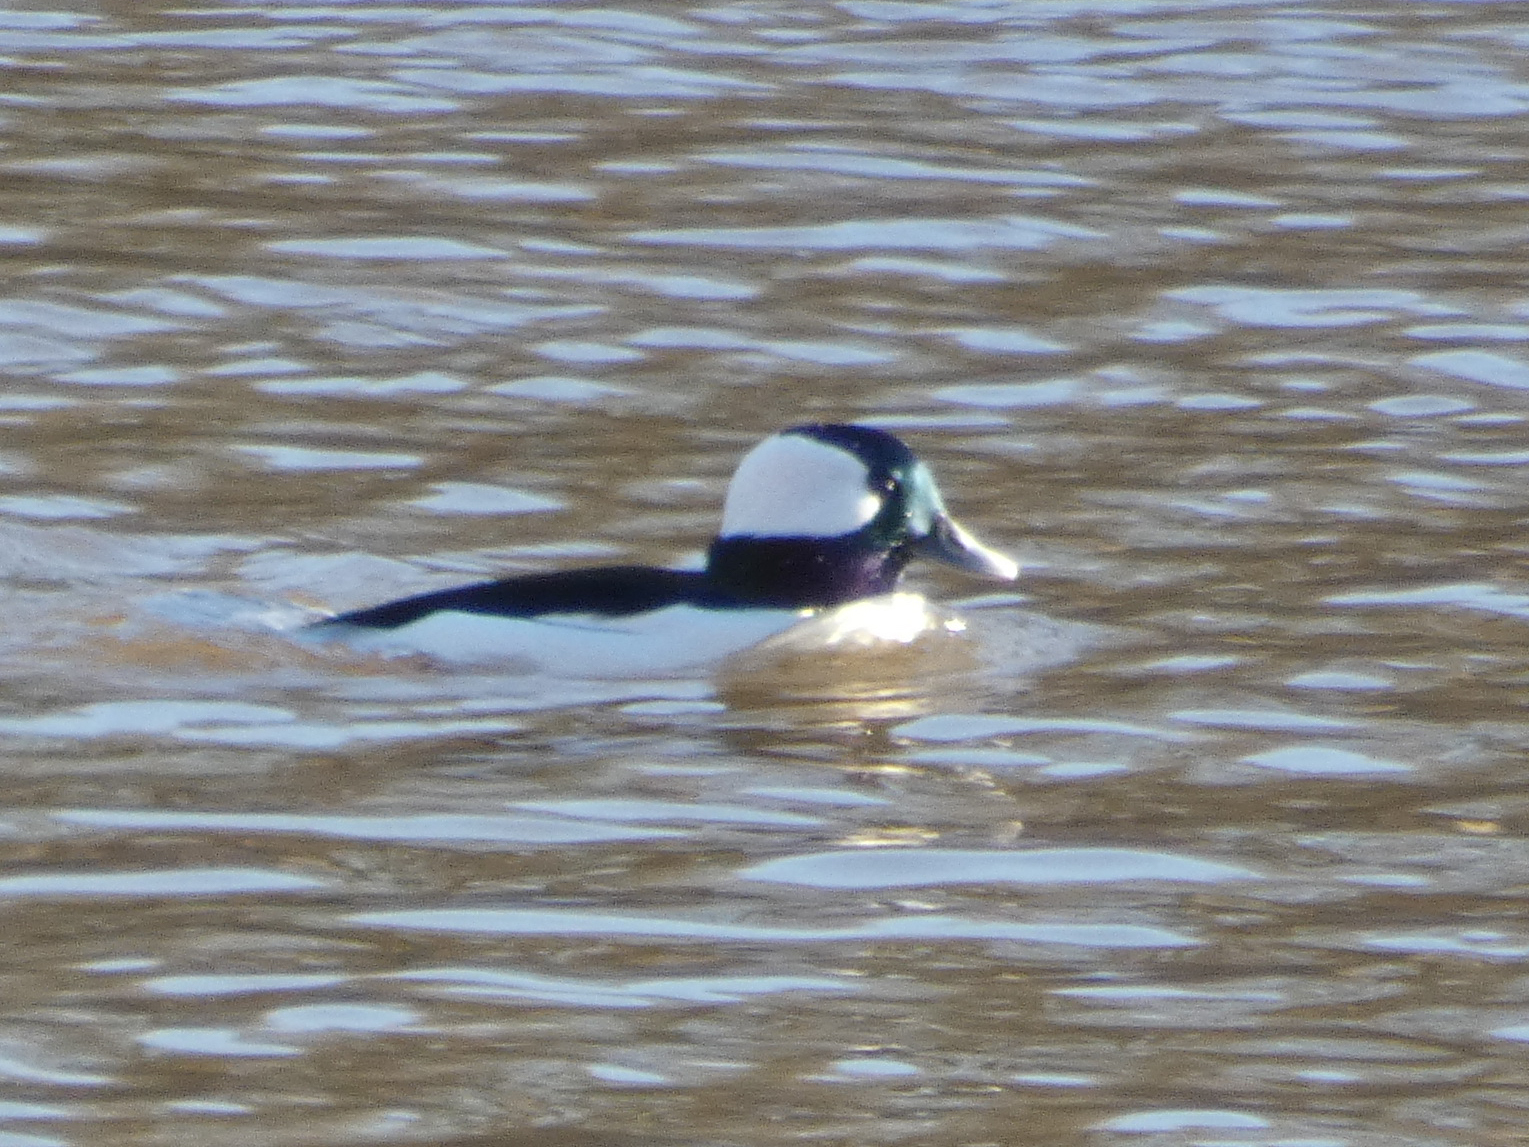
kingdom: Animalia
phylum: Chordata
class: Aves
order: Anseriformes
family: Anatidae
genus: Bucephala
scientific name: Bucephala albeola
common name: Bufflehead
